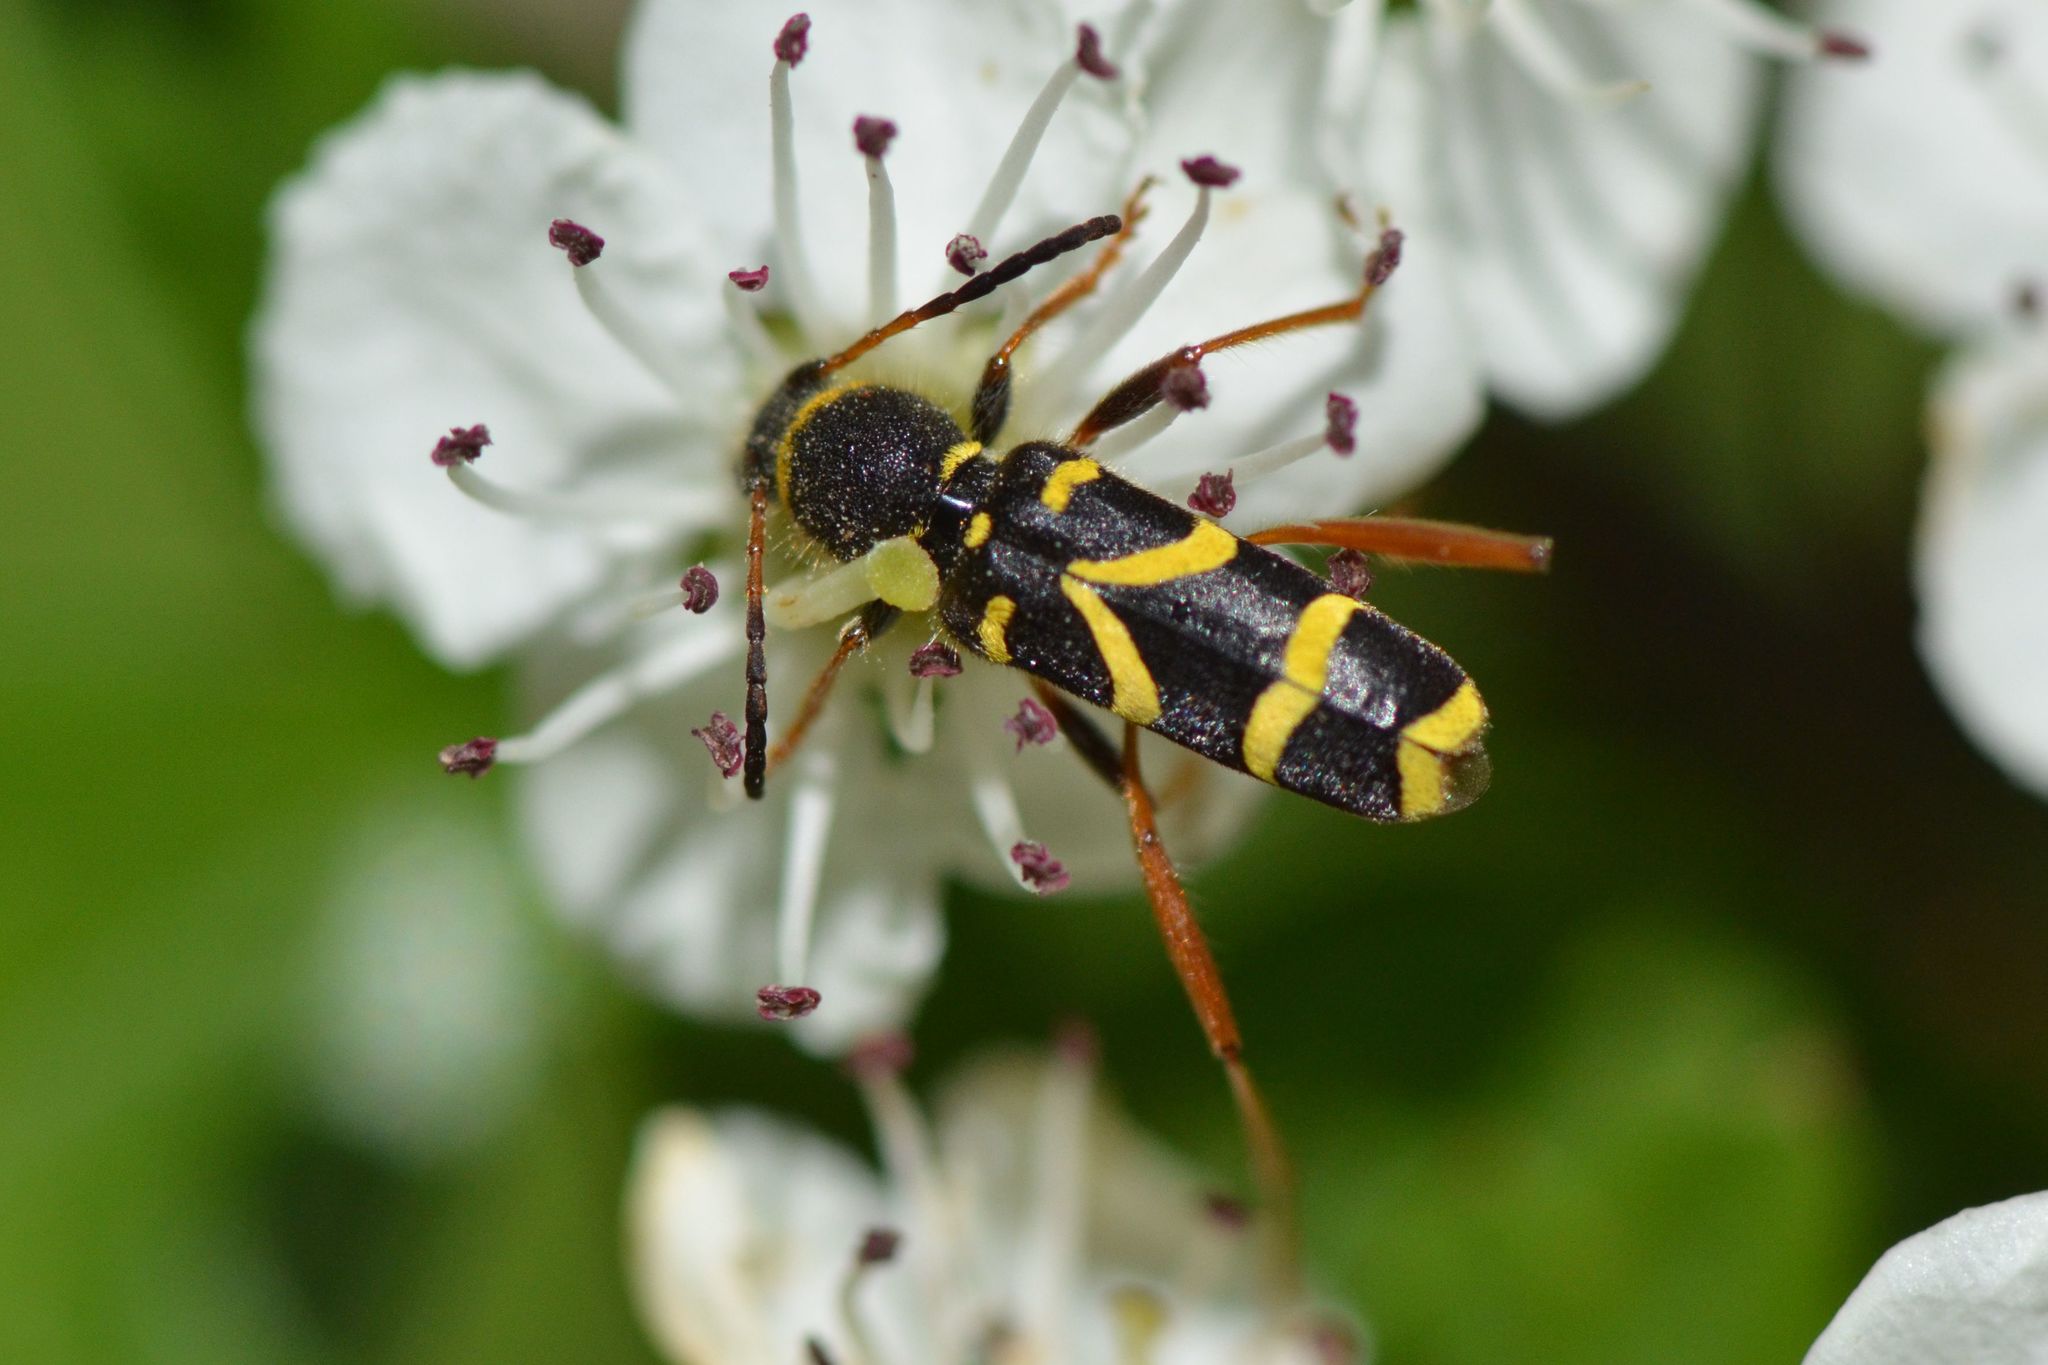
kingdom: Animalia
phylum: Arthropoda
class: Insecta
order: Coleoptera
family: Cerambycidae
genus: Clytus
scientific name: Clytus arietis
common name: Wasp beetle
